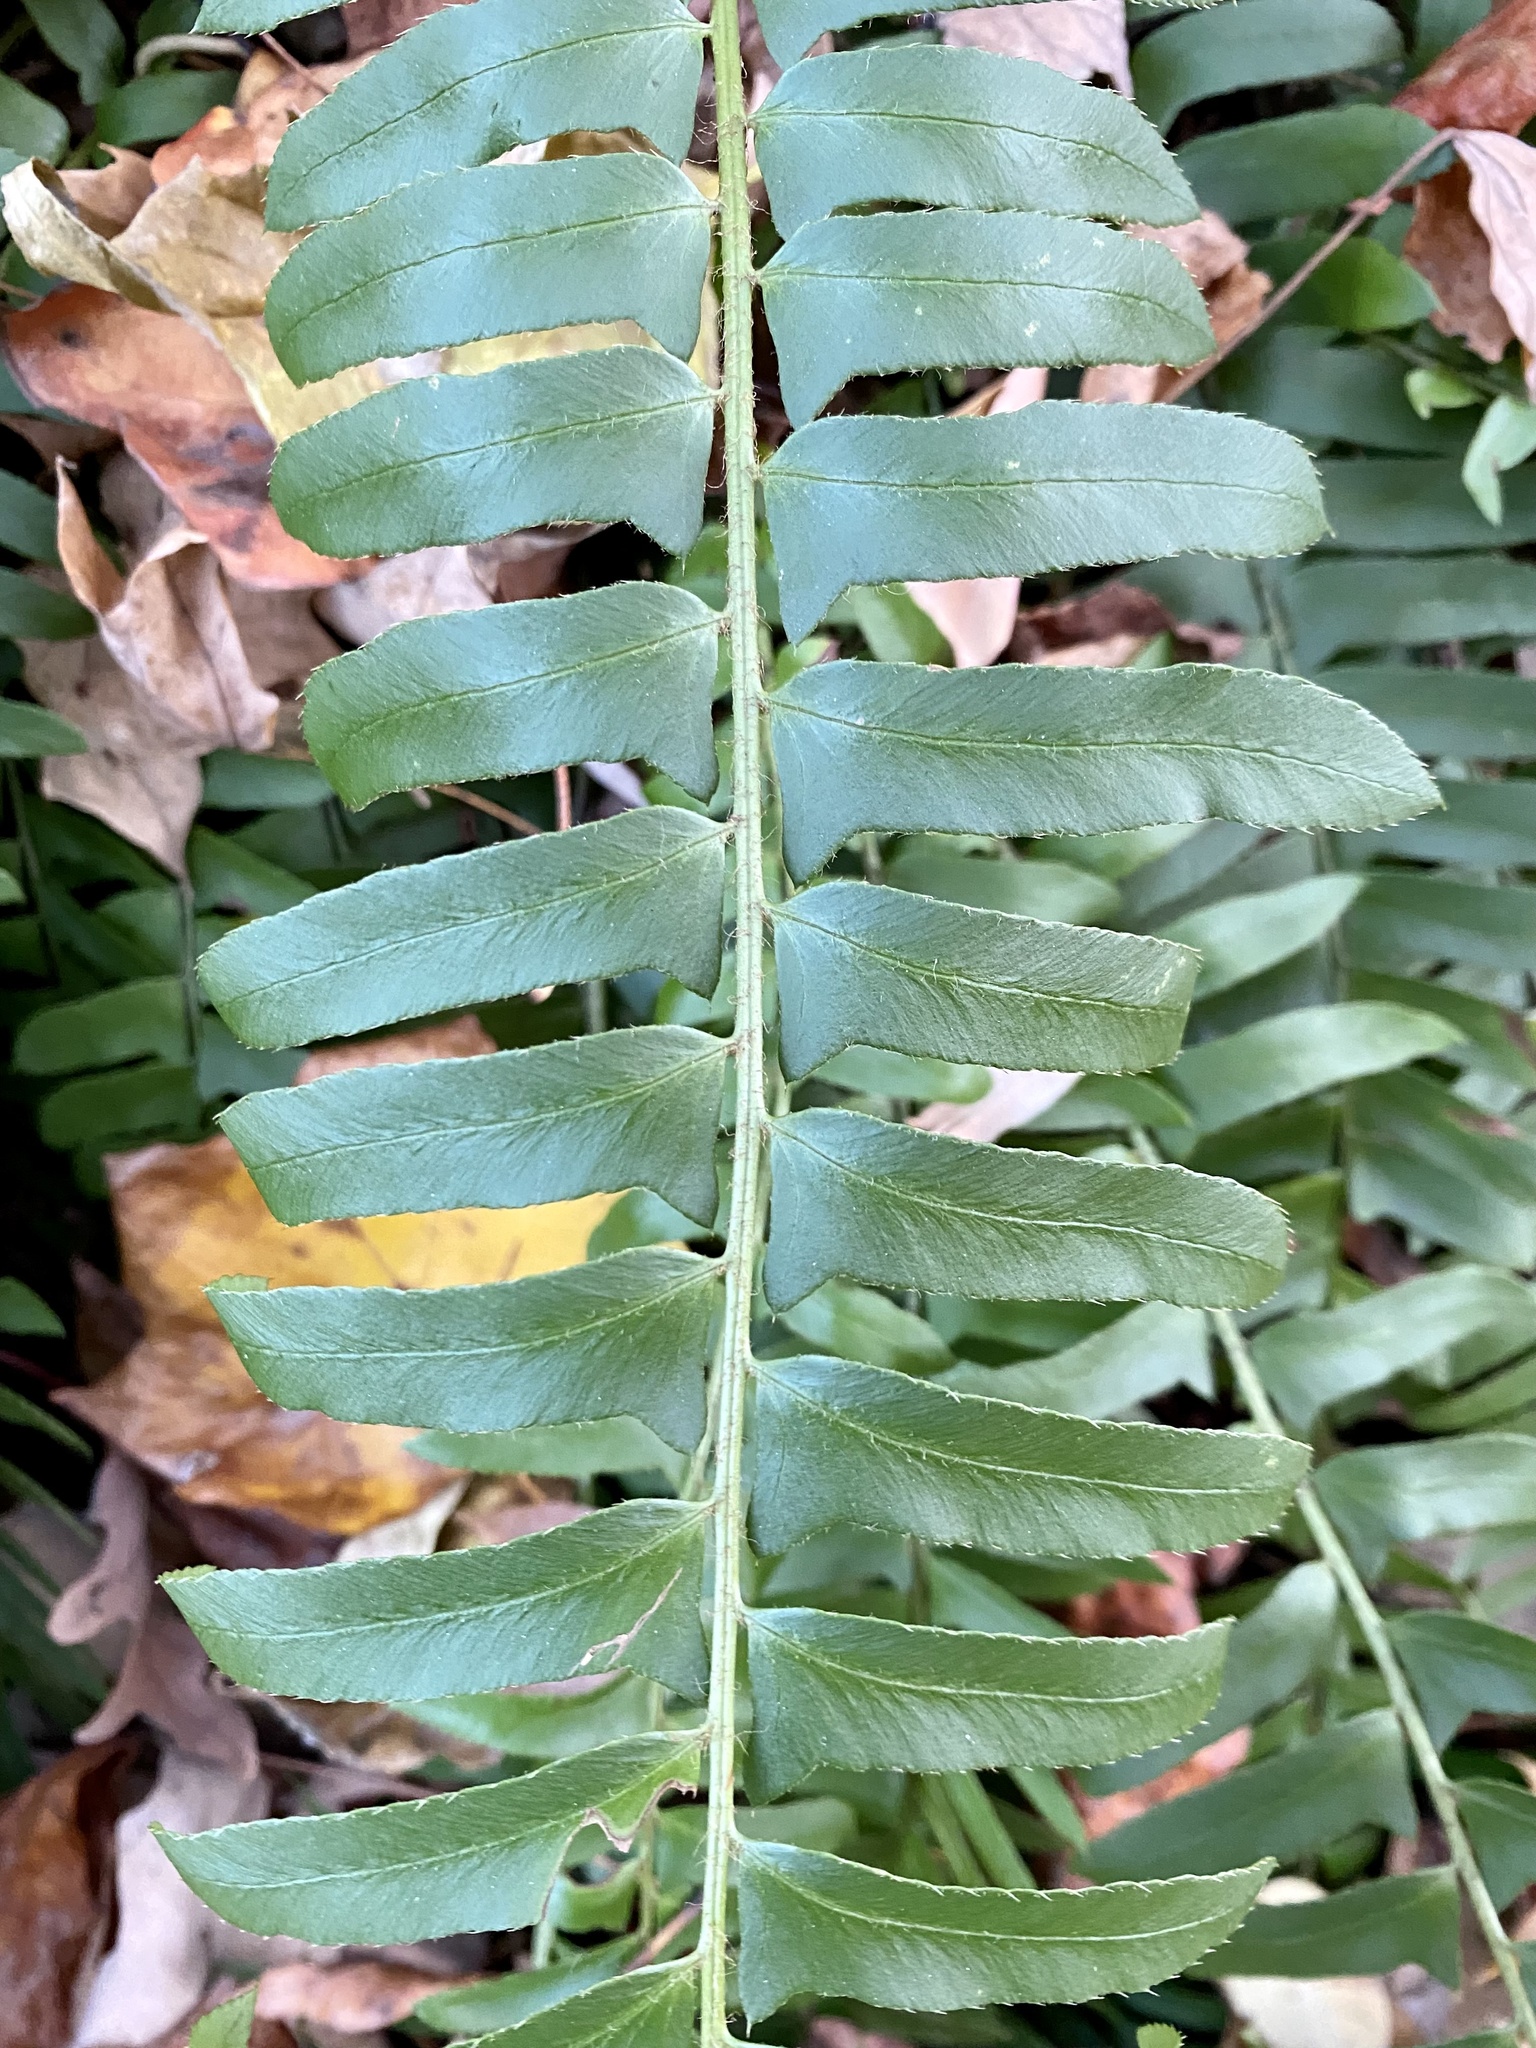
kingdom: Plantae
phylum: Tracheophyta
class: Polypodiopsida
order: Polypodiales
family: Dryopteridaceae
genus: Polystichum
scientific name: Polystichum acrostichoides
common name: Christmas fern
